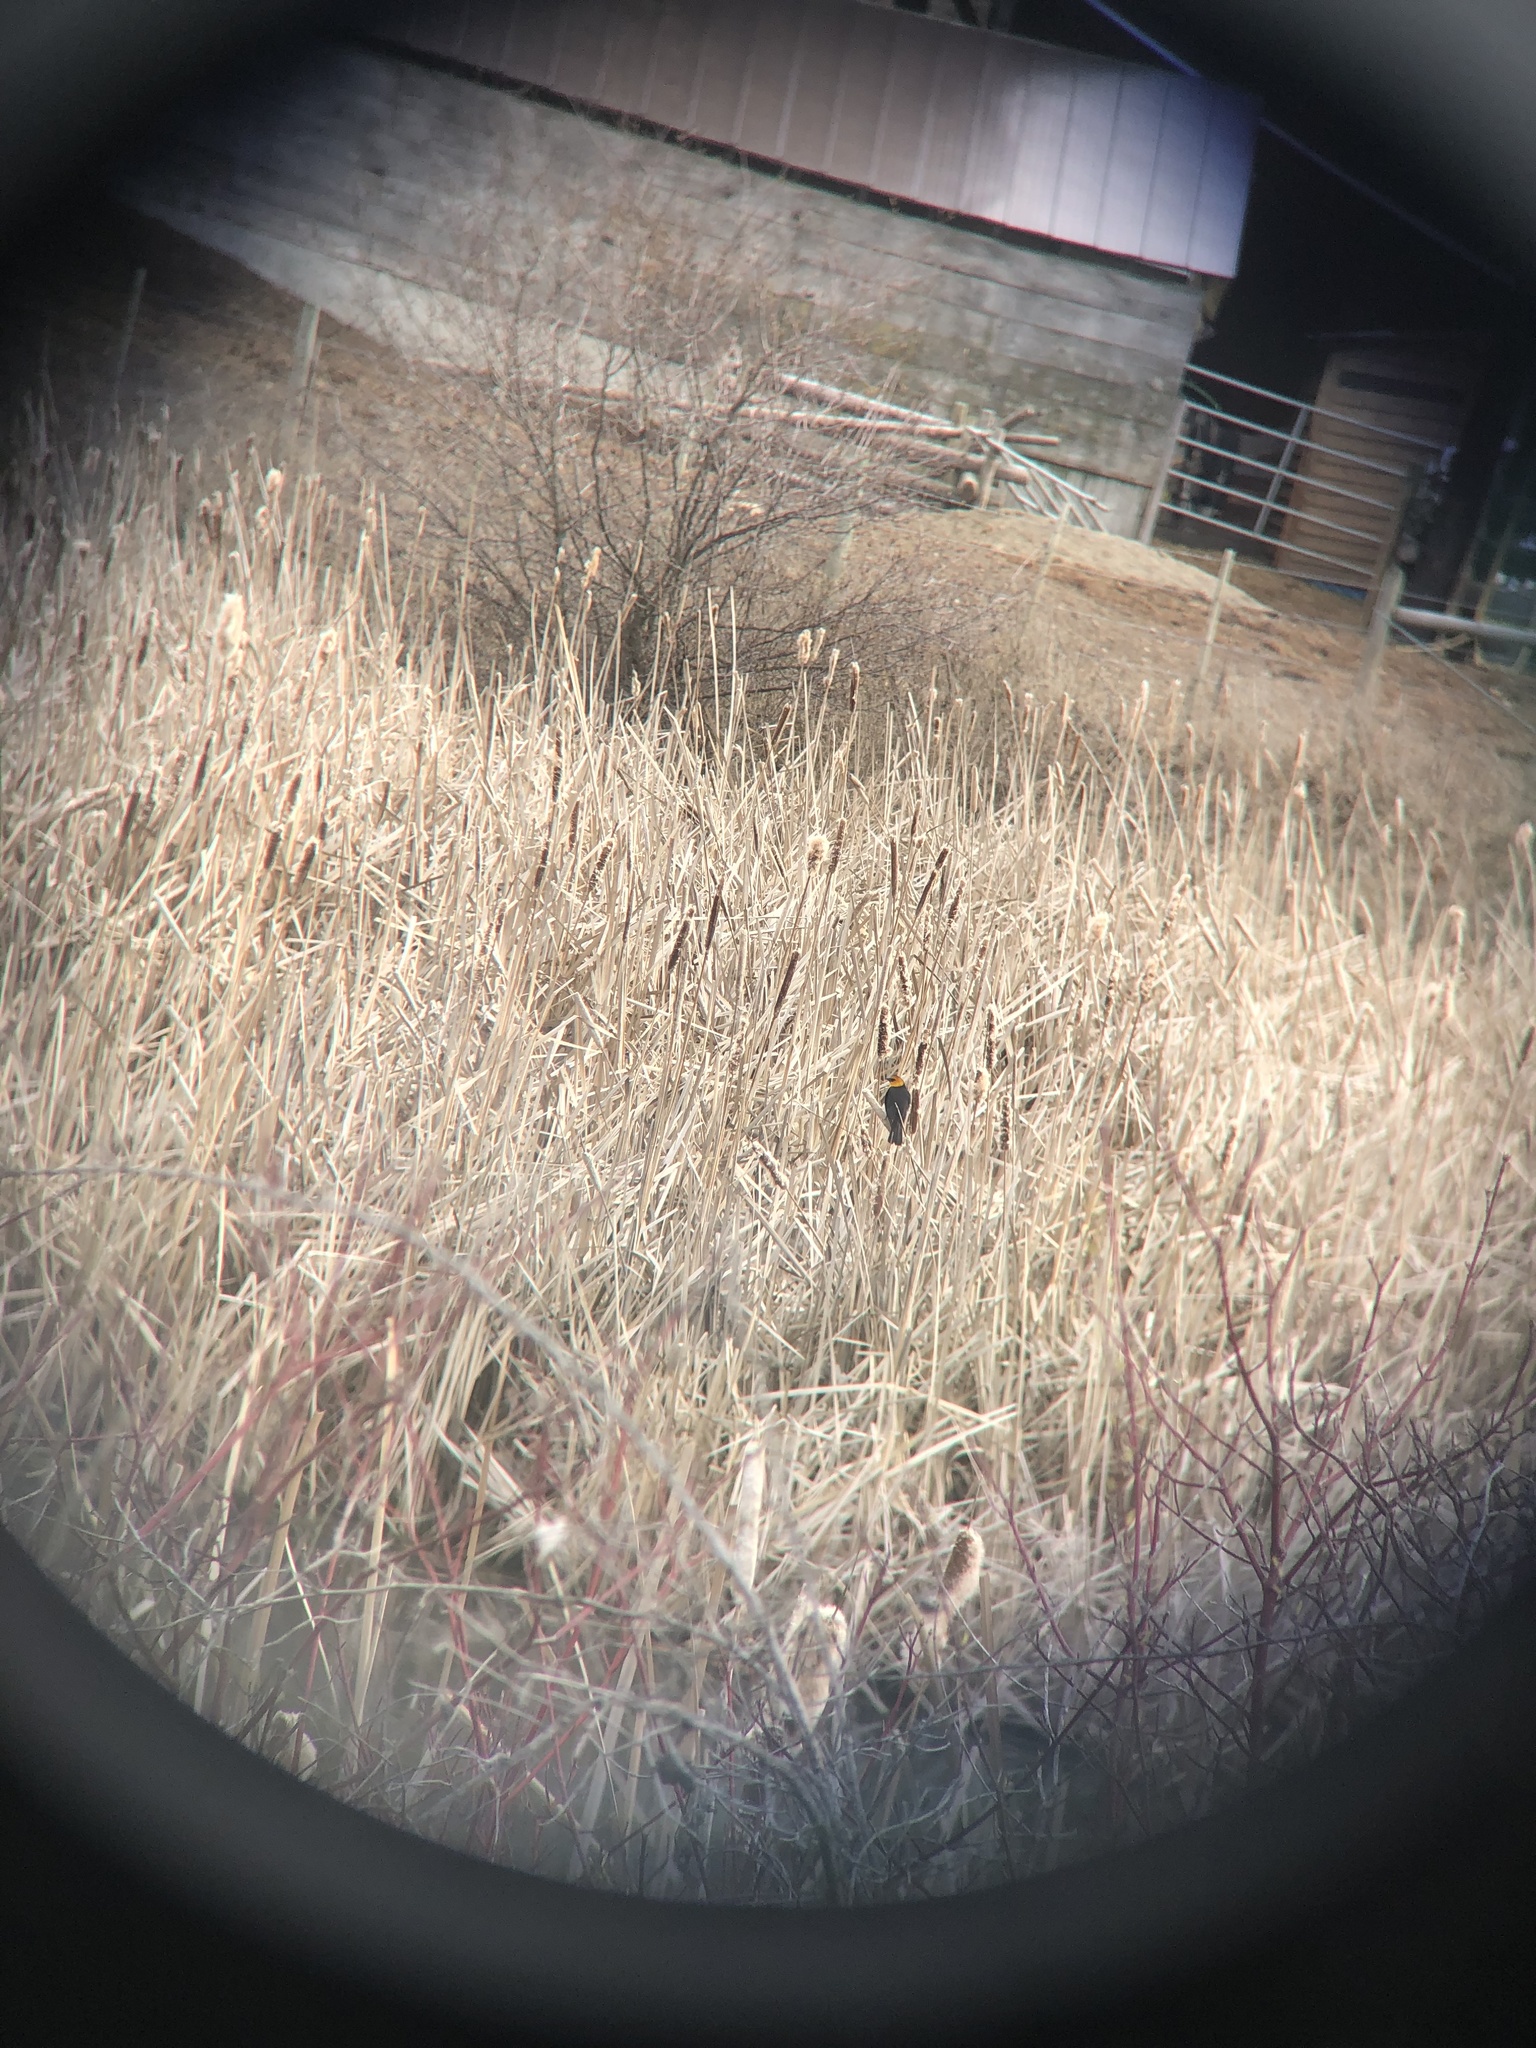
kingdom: Animalia
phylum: Chordata
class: Aves
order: Passeriformes
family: Icteridae
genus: Xanthocephalus
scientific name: Xanthocephalus xanthocephalus
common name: Yellow-headed blackbird
